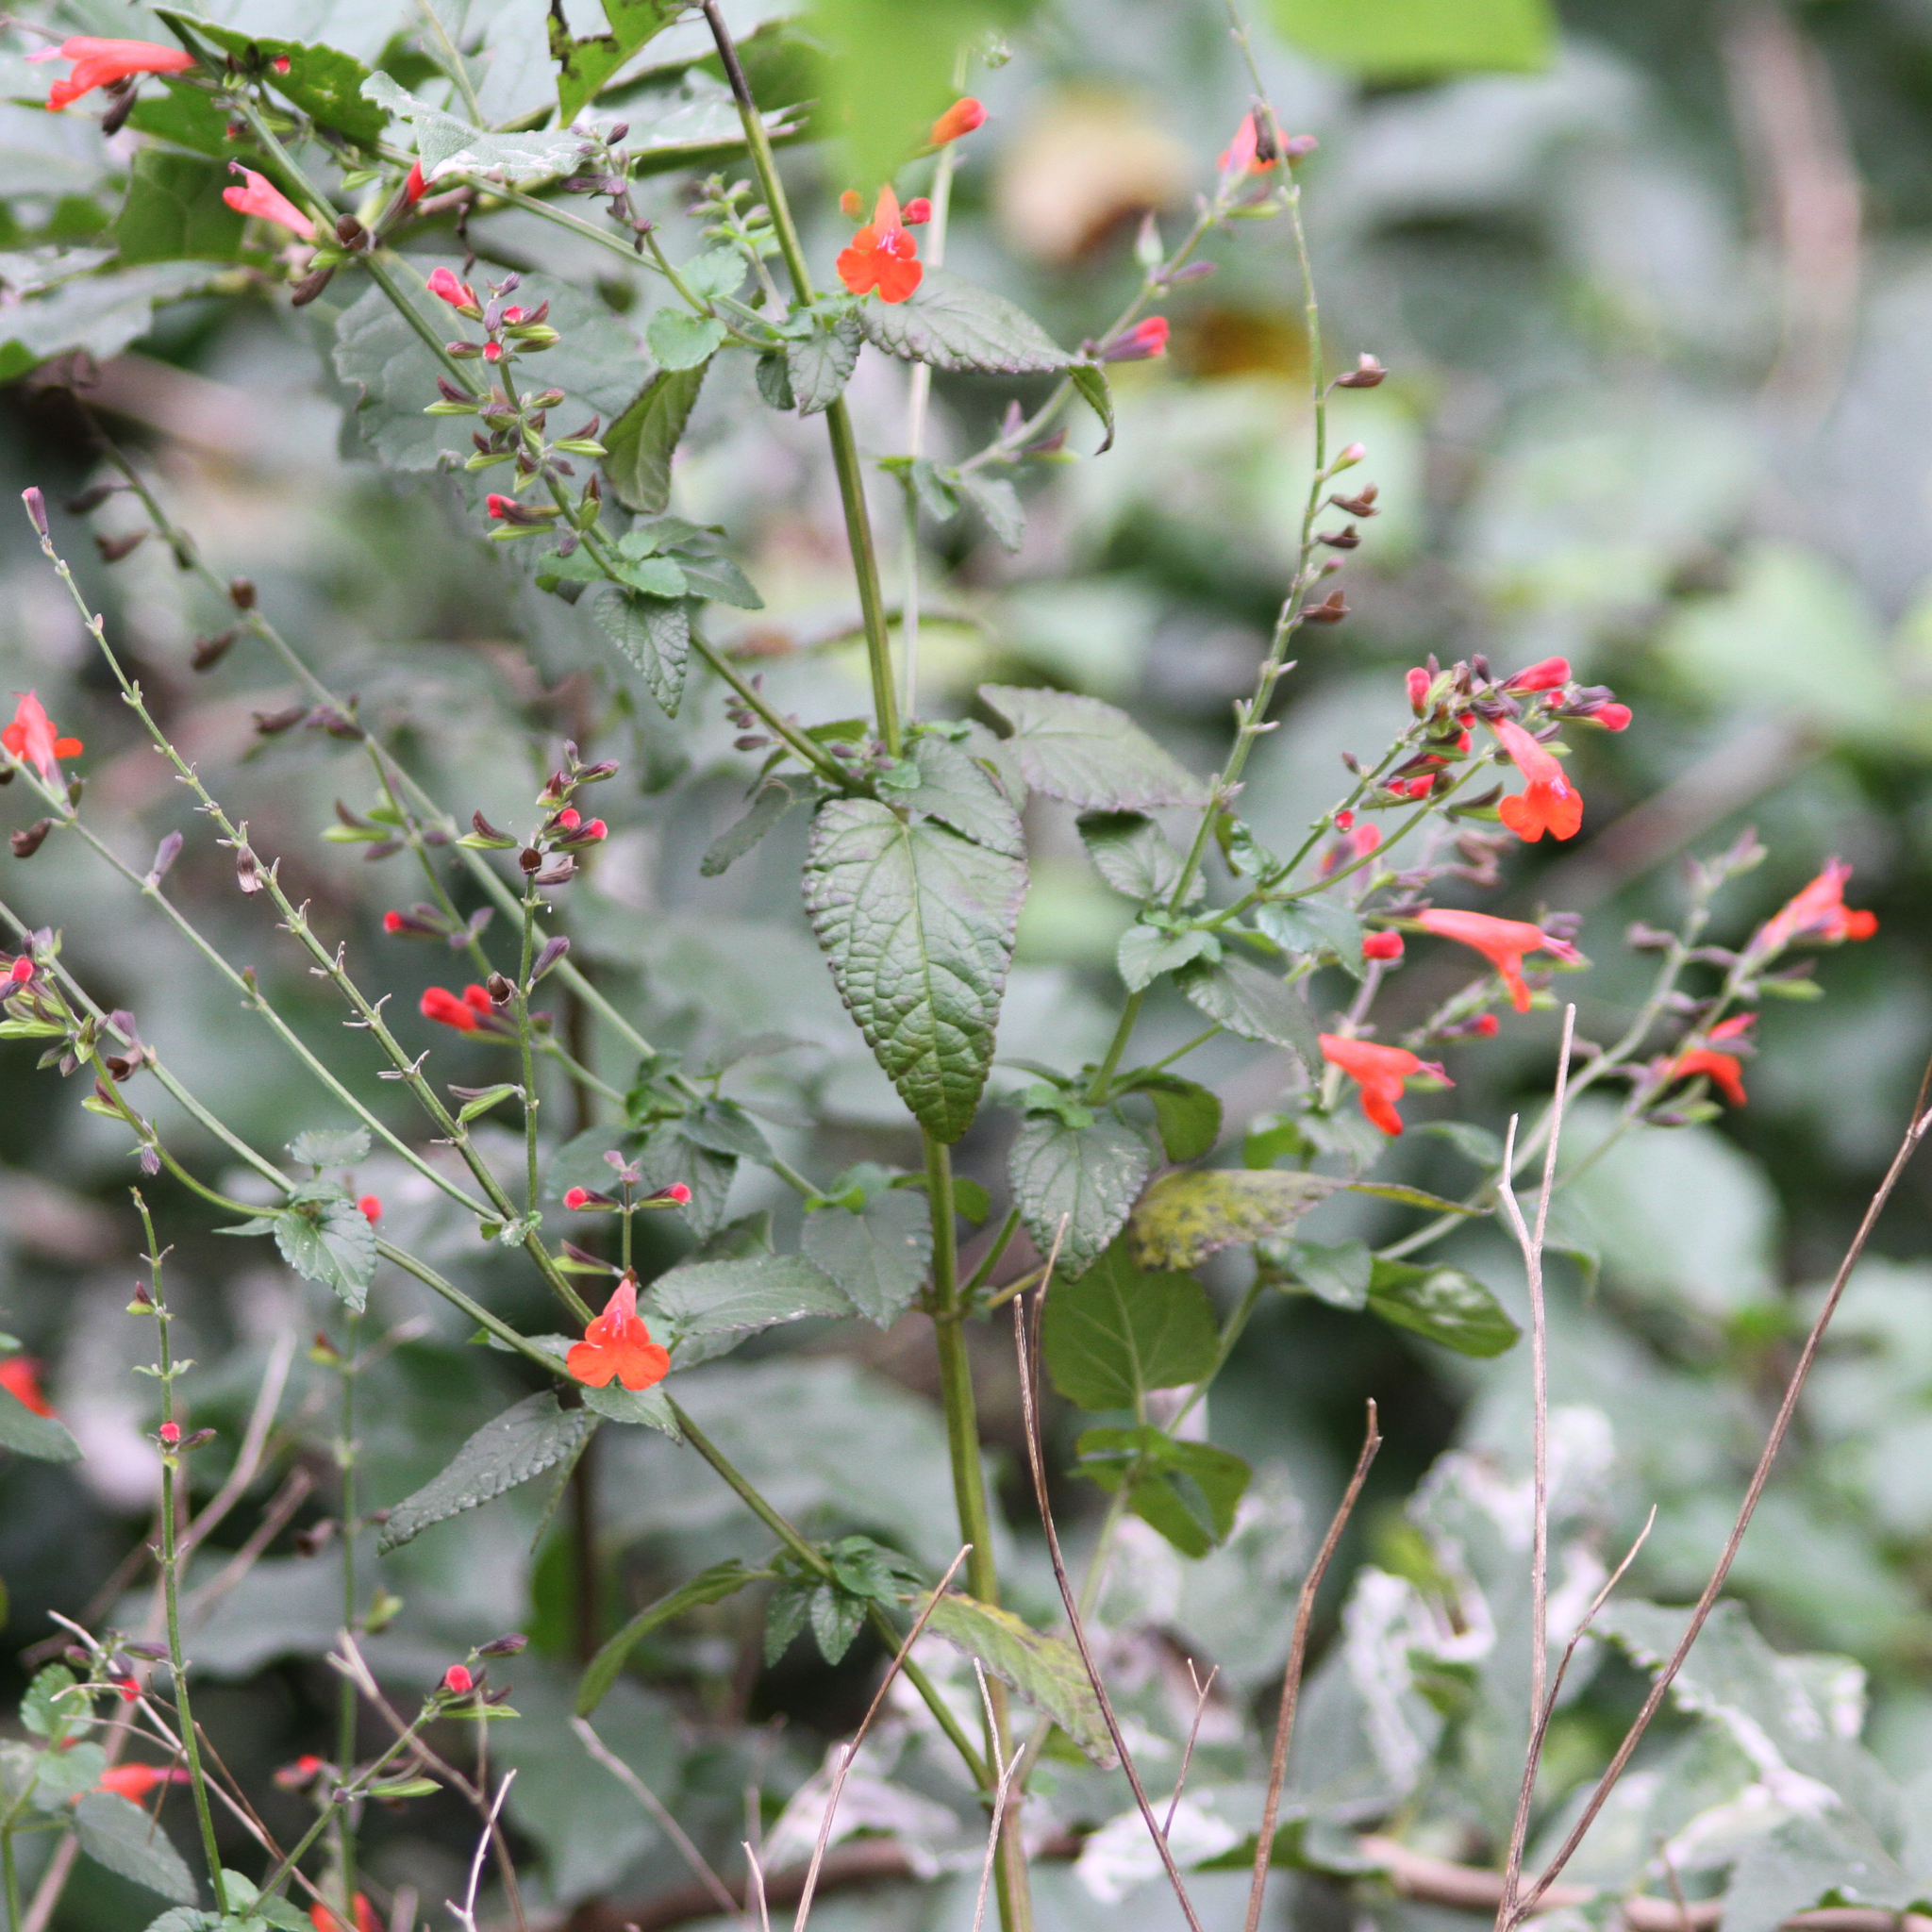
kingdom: Plantae
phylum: Tracheophyta
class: Magnoliopsida
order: Lamiales
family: Lamiaceae
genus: Salvia
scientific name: Salvia coccinea
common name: Blood sage
